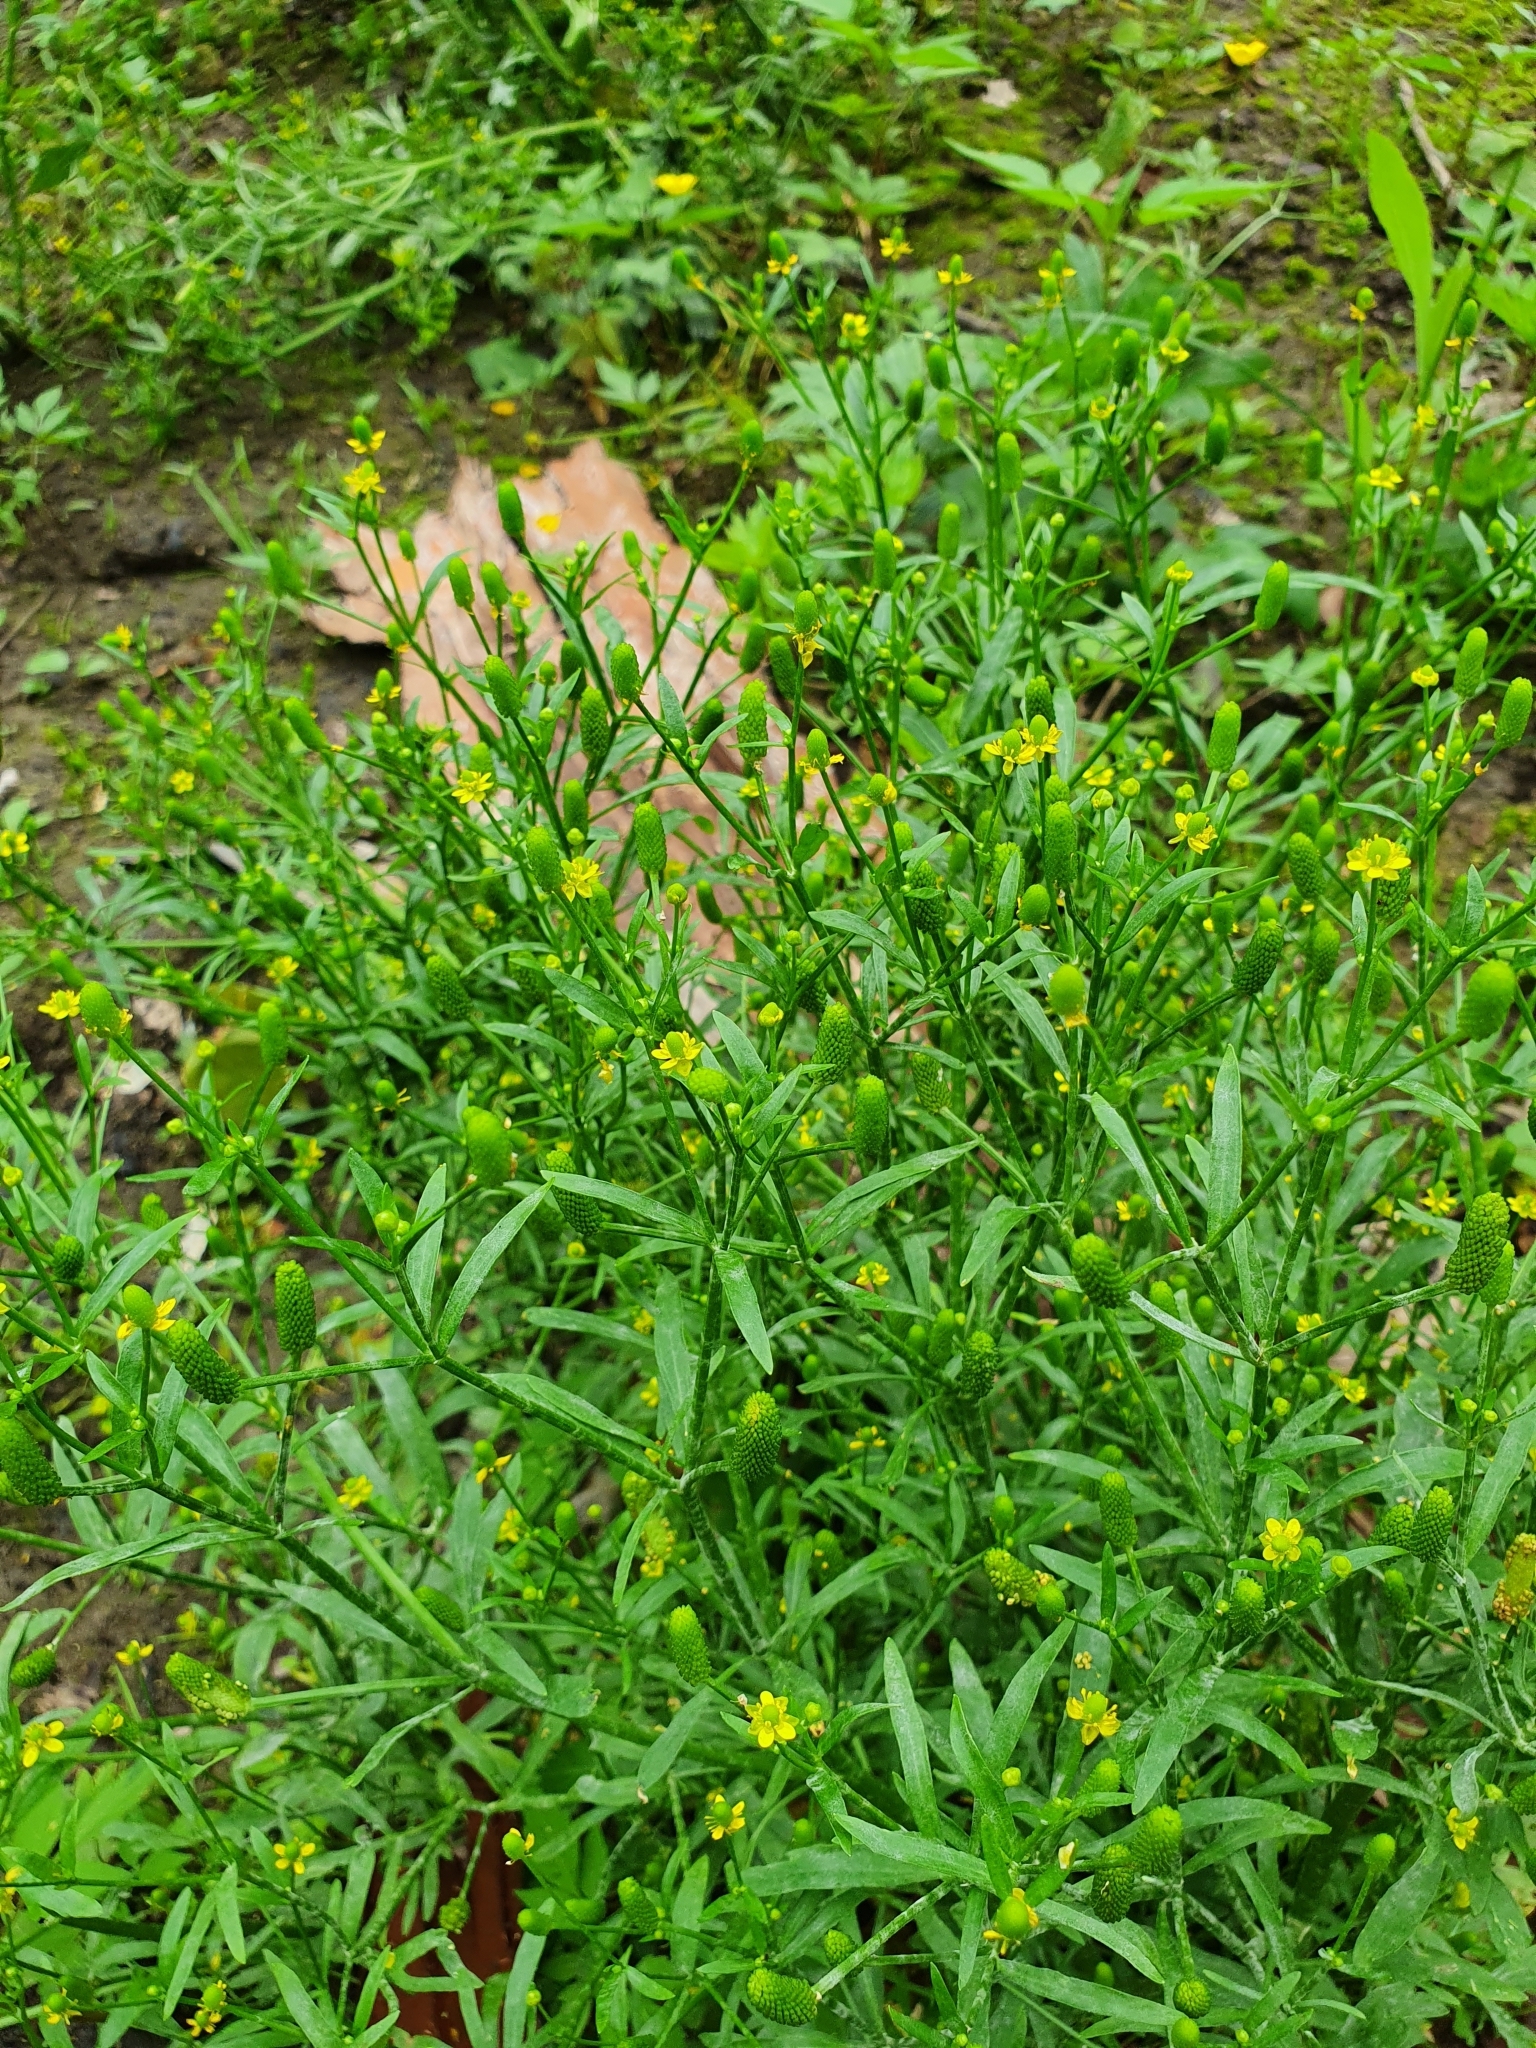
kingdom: Plantae
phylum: Tracheophyta
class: Magnoliopsida
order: Ranunculales
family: Ranunculaceae
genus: Ranunculus
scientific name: Ranunculus sceleratus
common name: Celery-leaved buttercup
